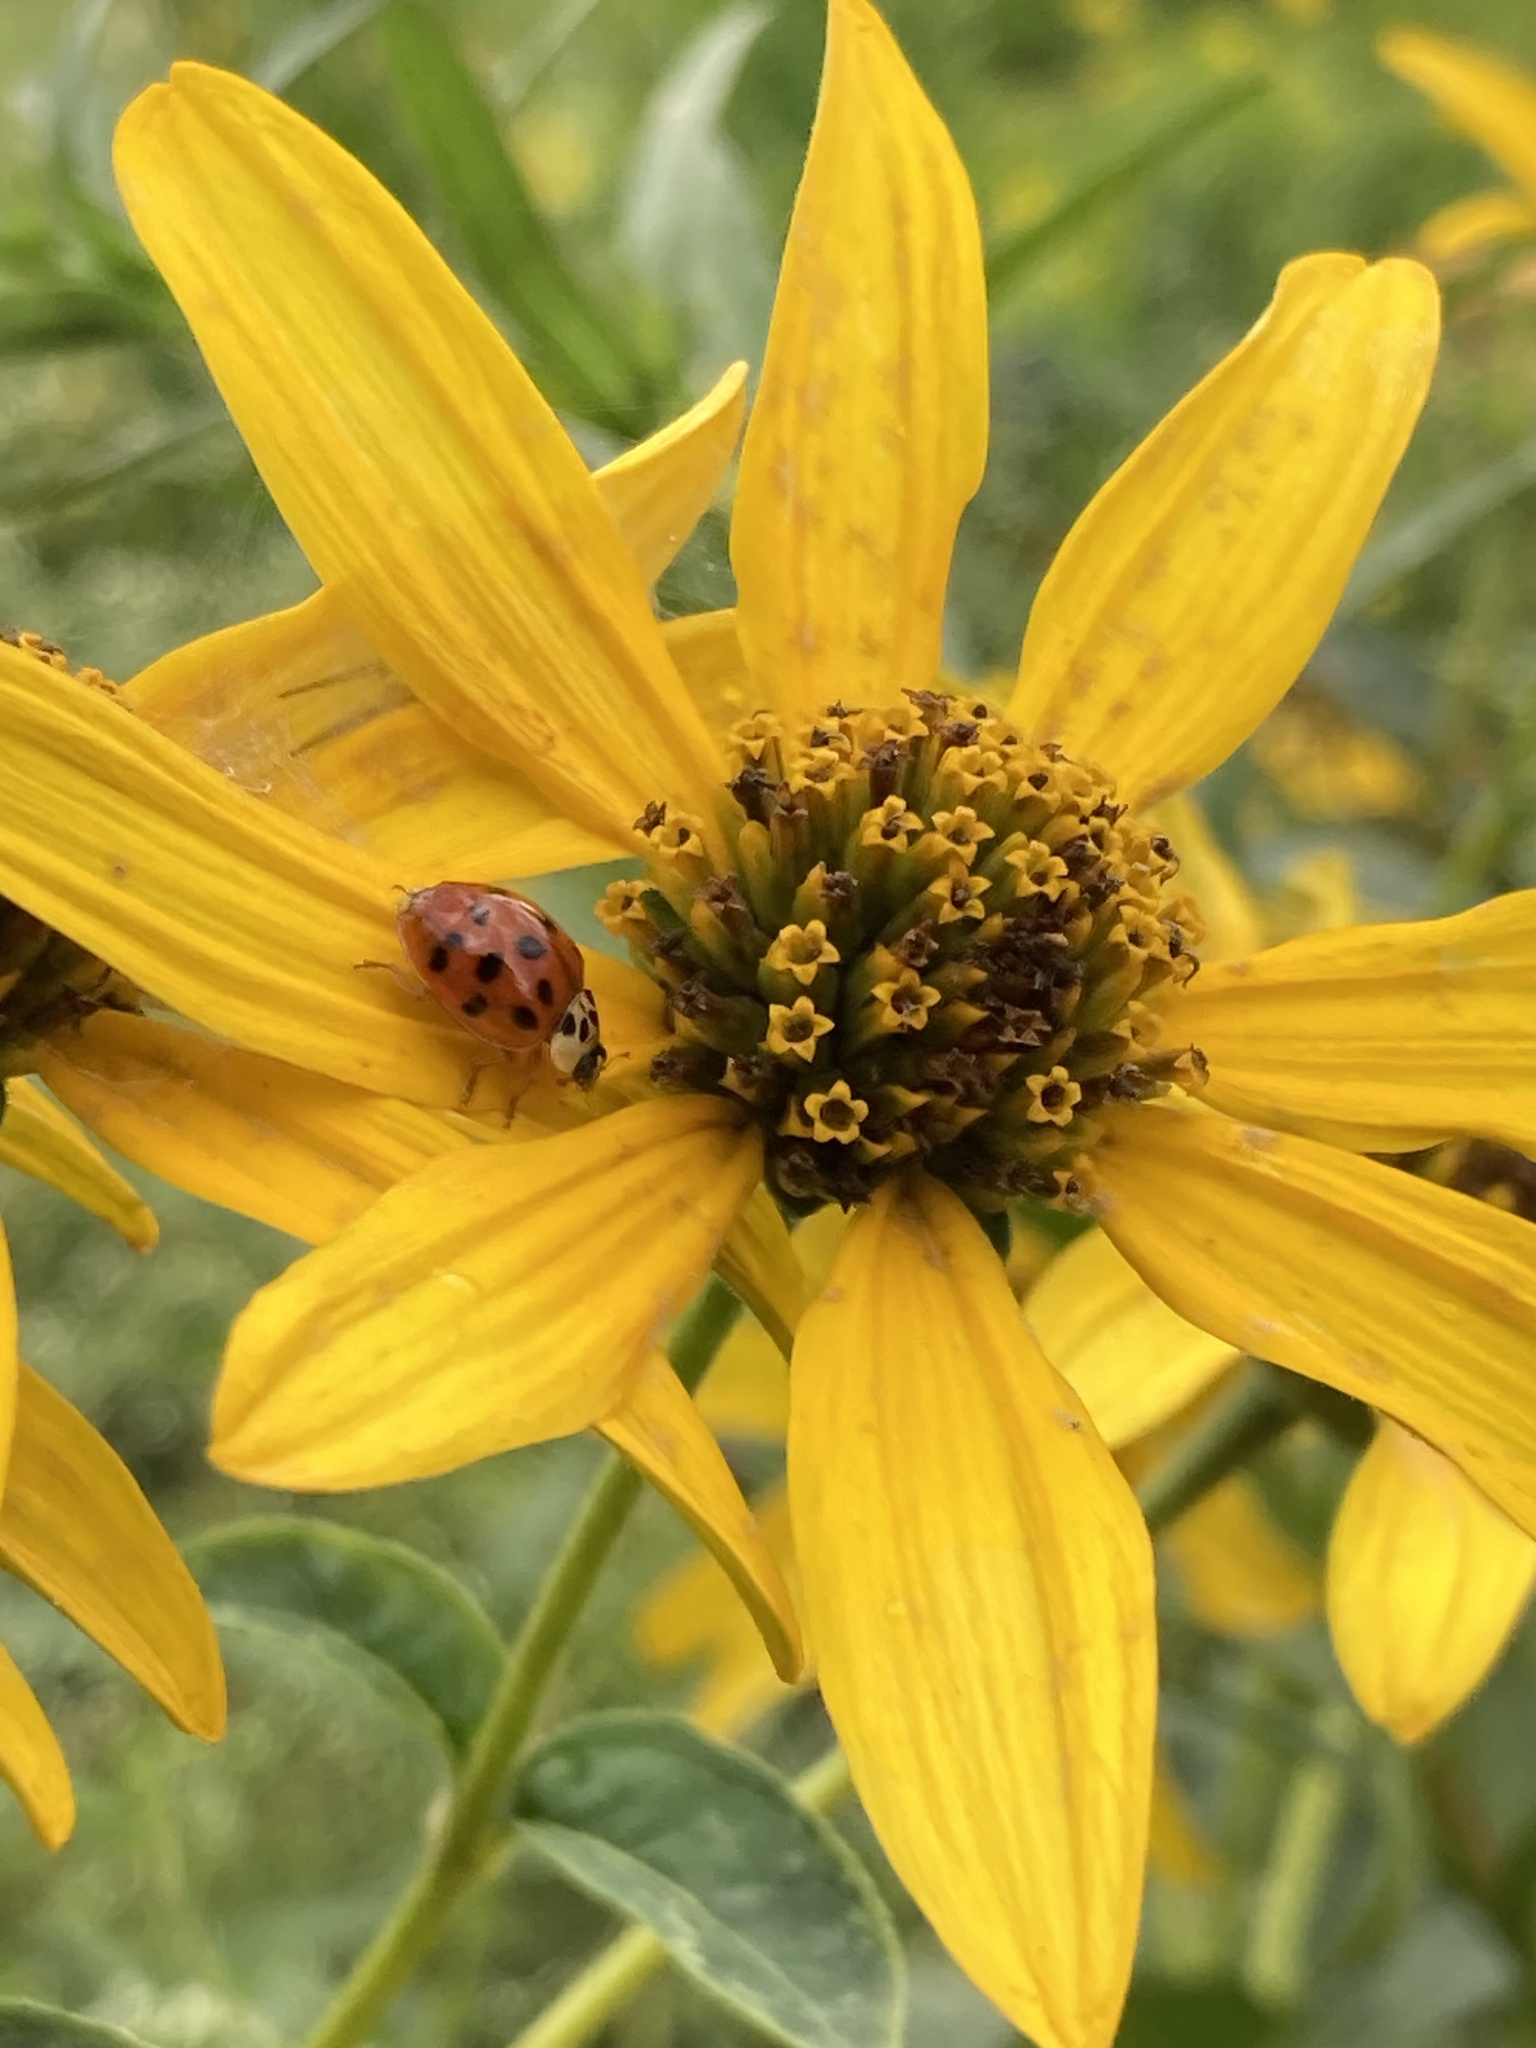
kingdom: Animalia
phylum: Arthropoda
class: Insecta
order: Coleoptera
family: Coccinellidae
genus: Harmonia
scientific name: Harmonia axyridis
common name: Harlequin ladybird
